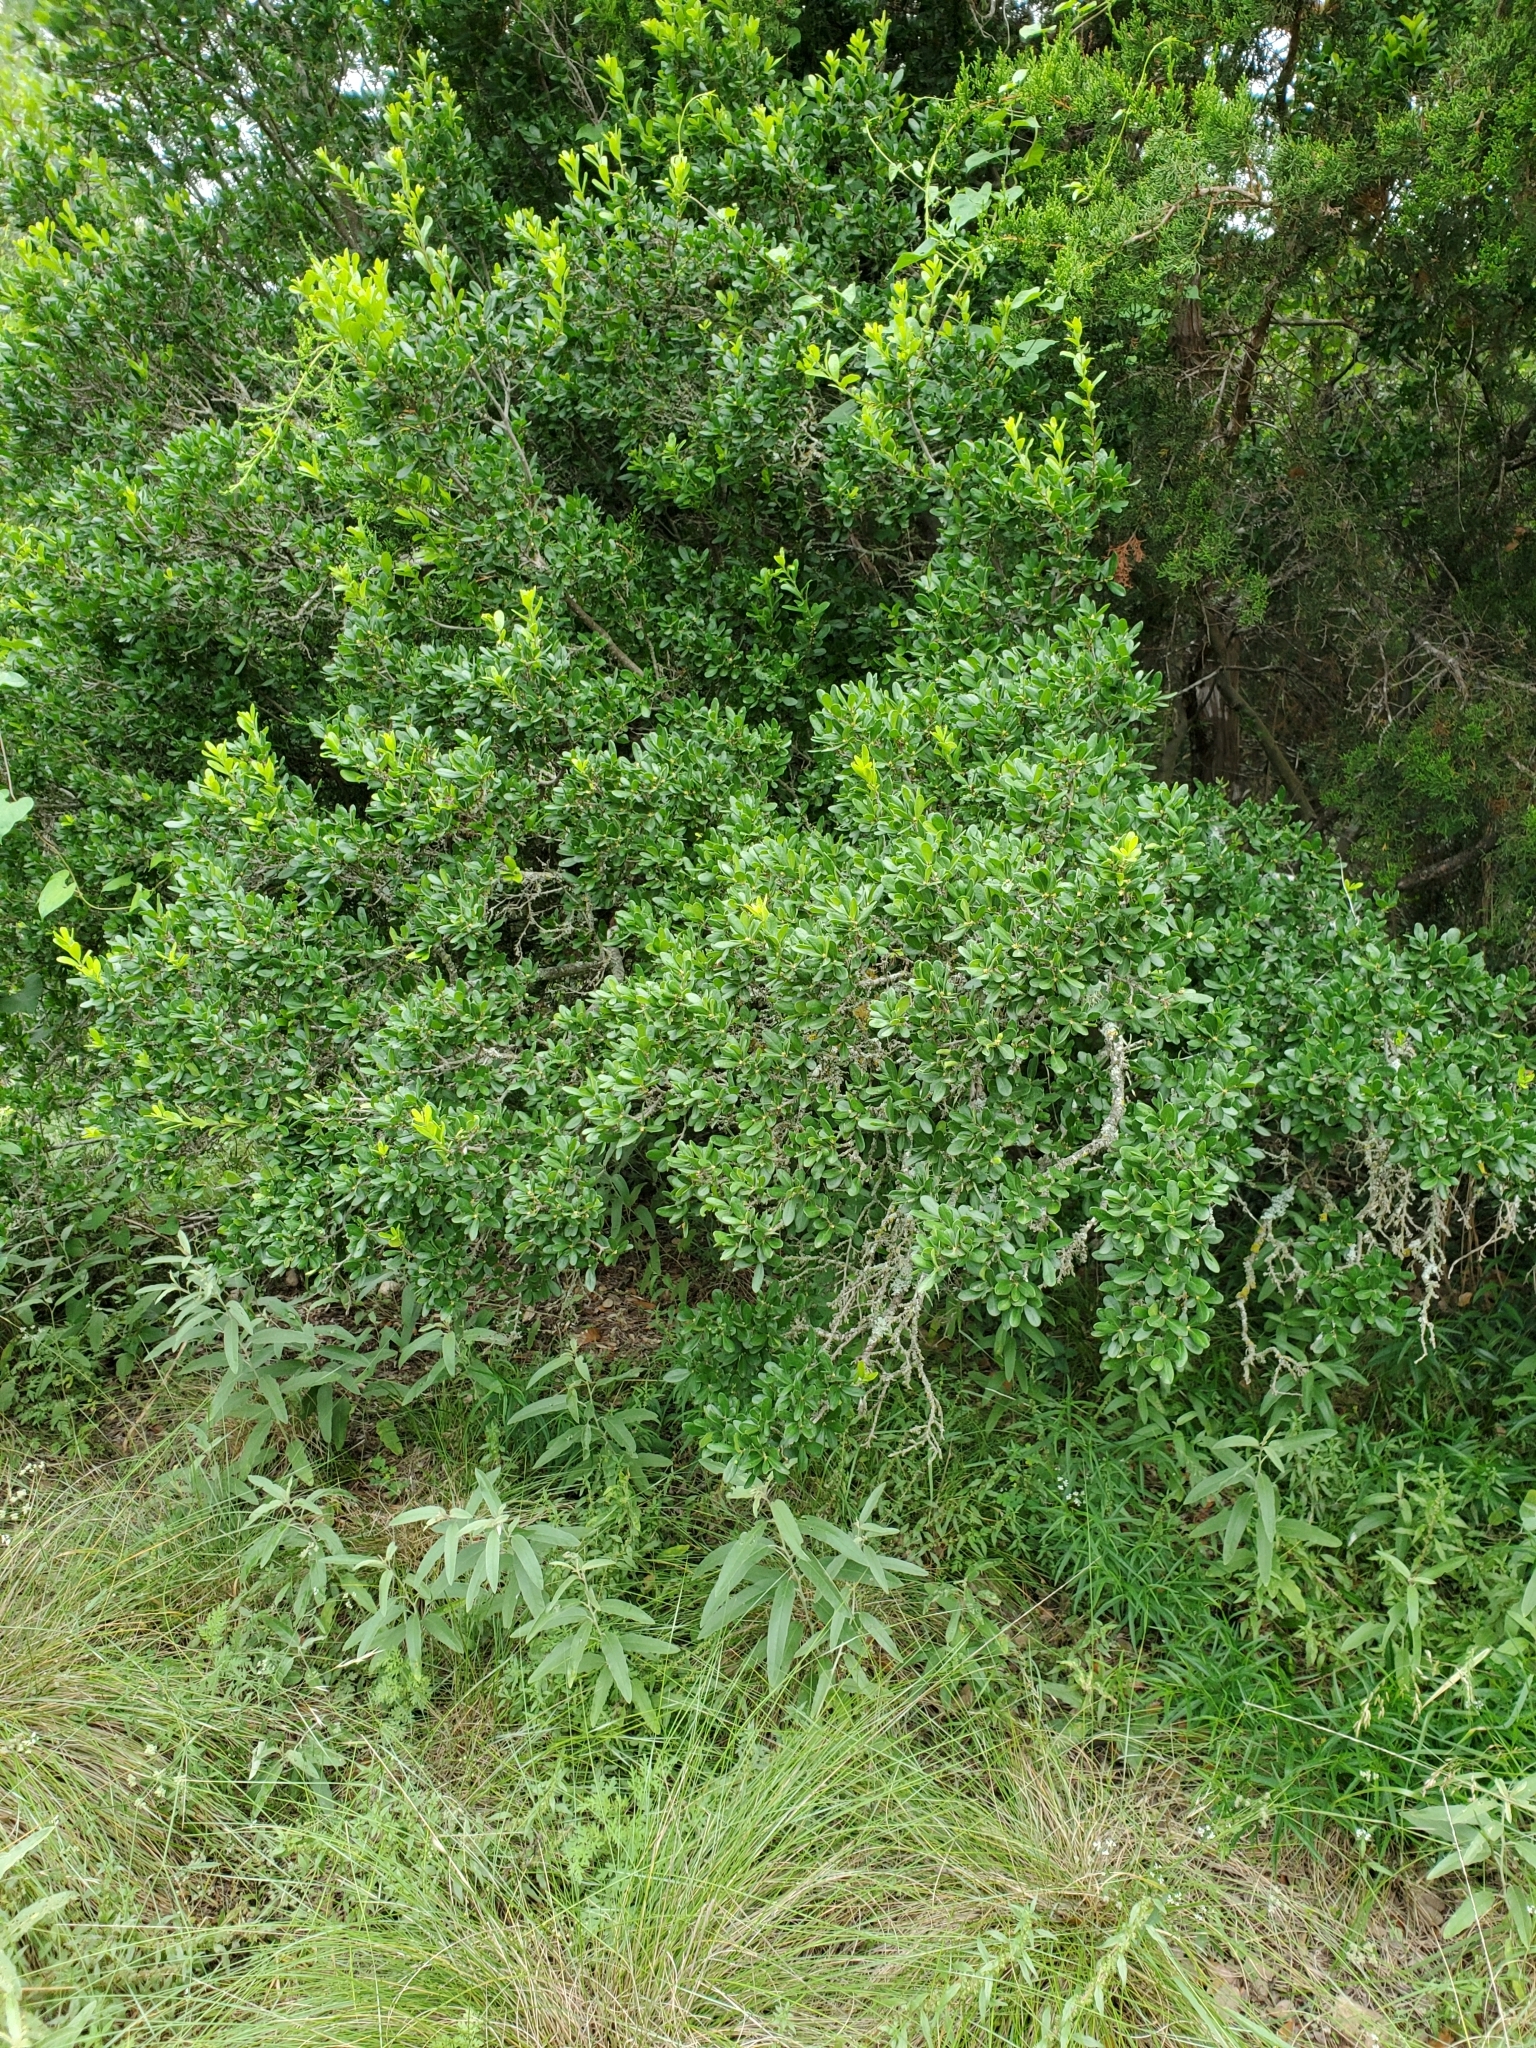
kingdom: Plantae
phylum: Tracheophyta
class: Magnoliopsida
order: Ericales
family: Ebenaceae
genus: Diospyros
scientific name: Diospyros texana
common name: Texas persimmon
